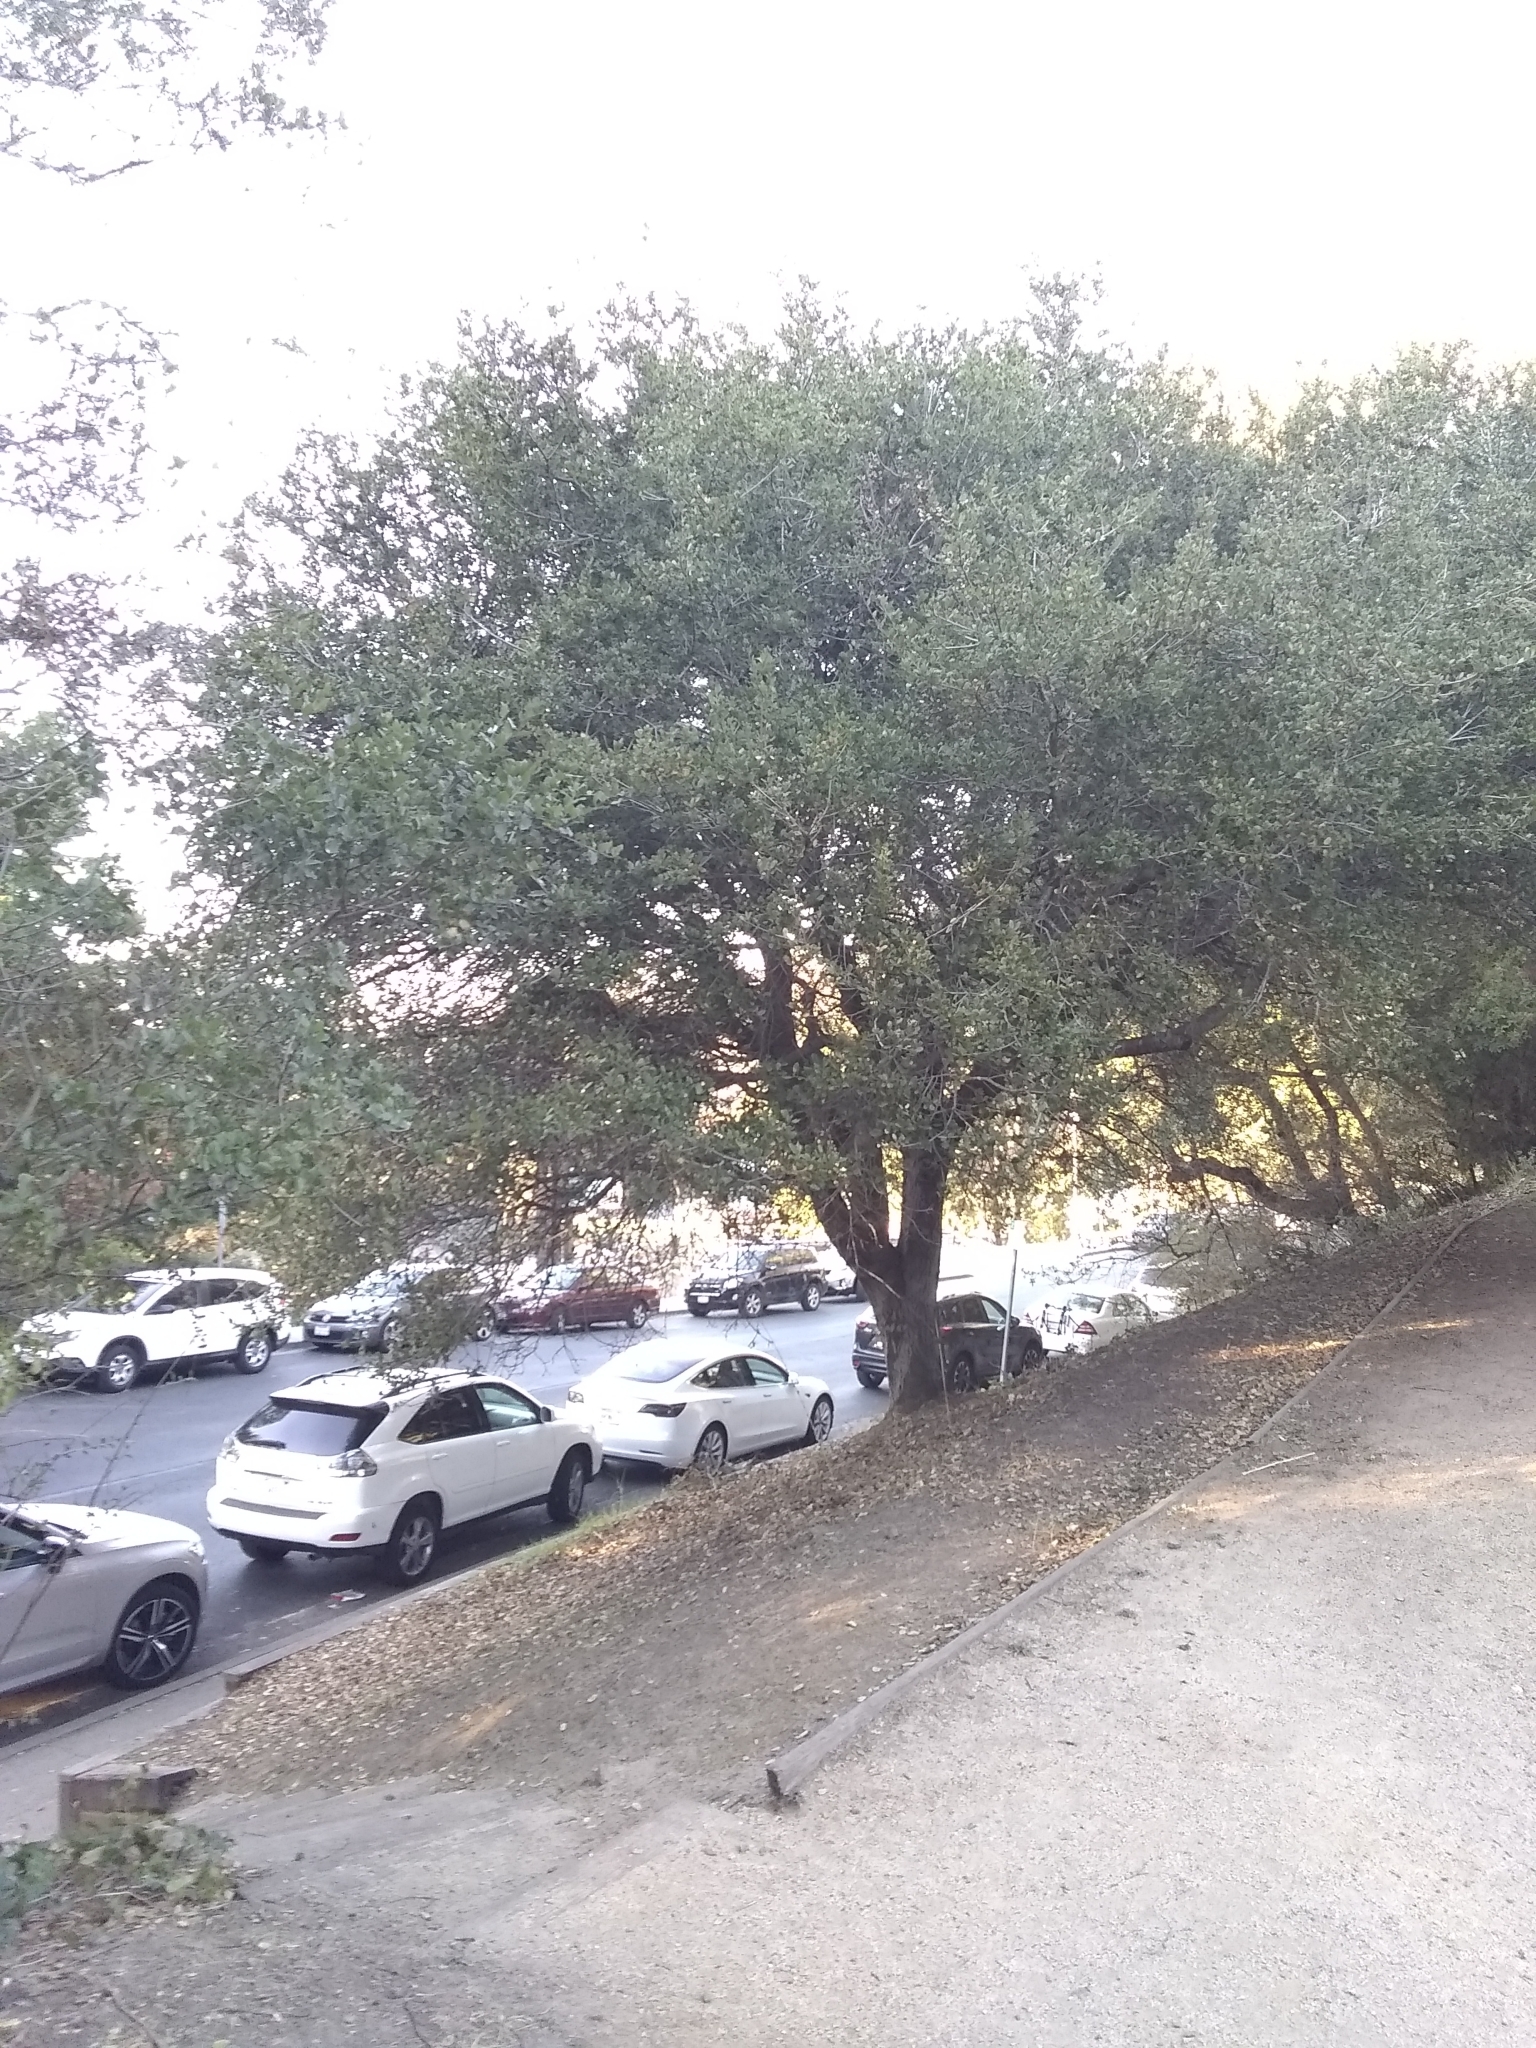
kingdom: Animalia
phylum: Arthropoda
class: Insecta
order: Hymenoptera
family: Cynipidae
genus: Callirhytis
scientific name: Callirhytis
